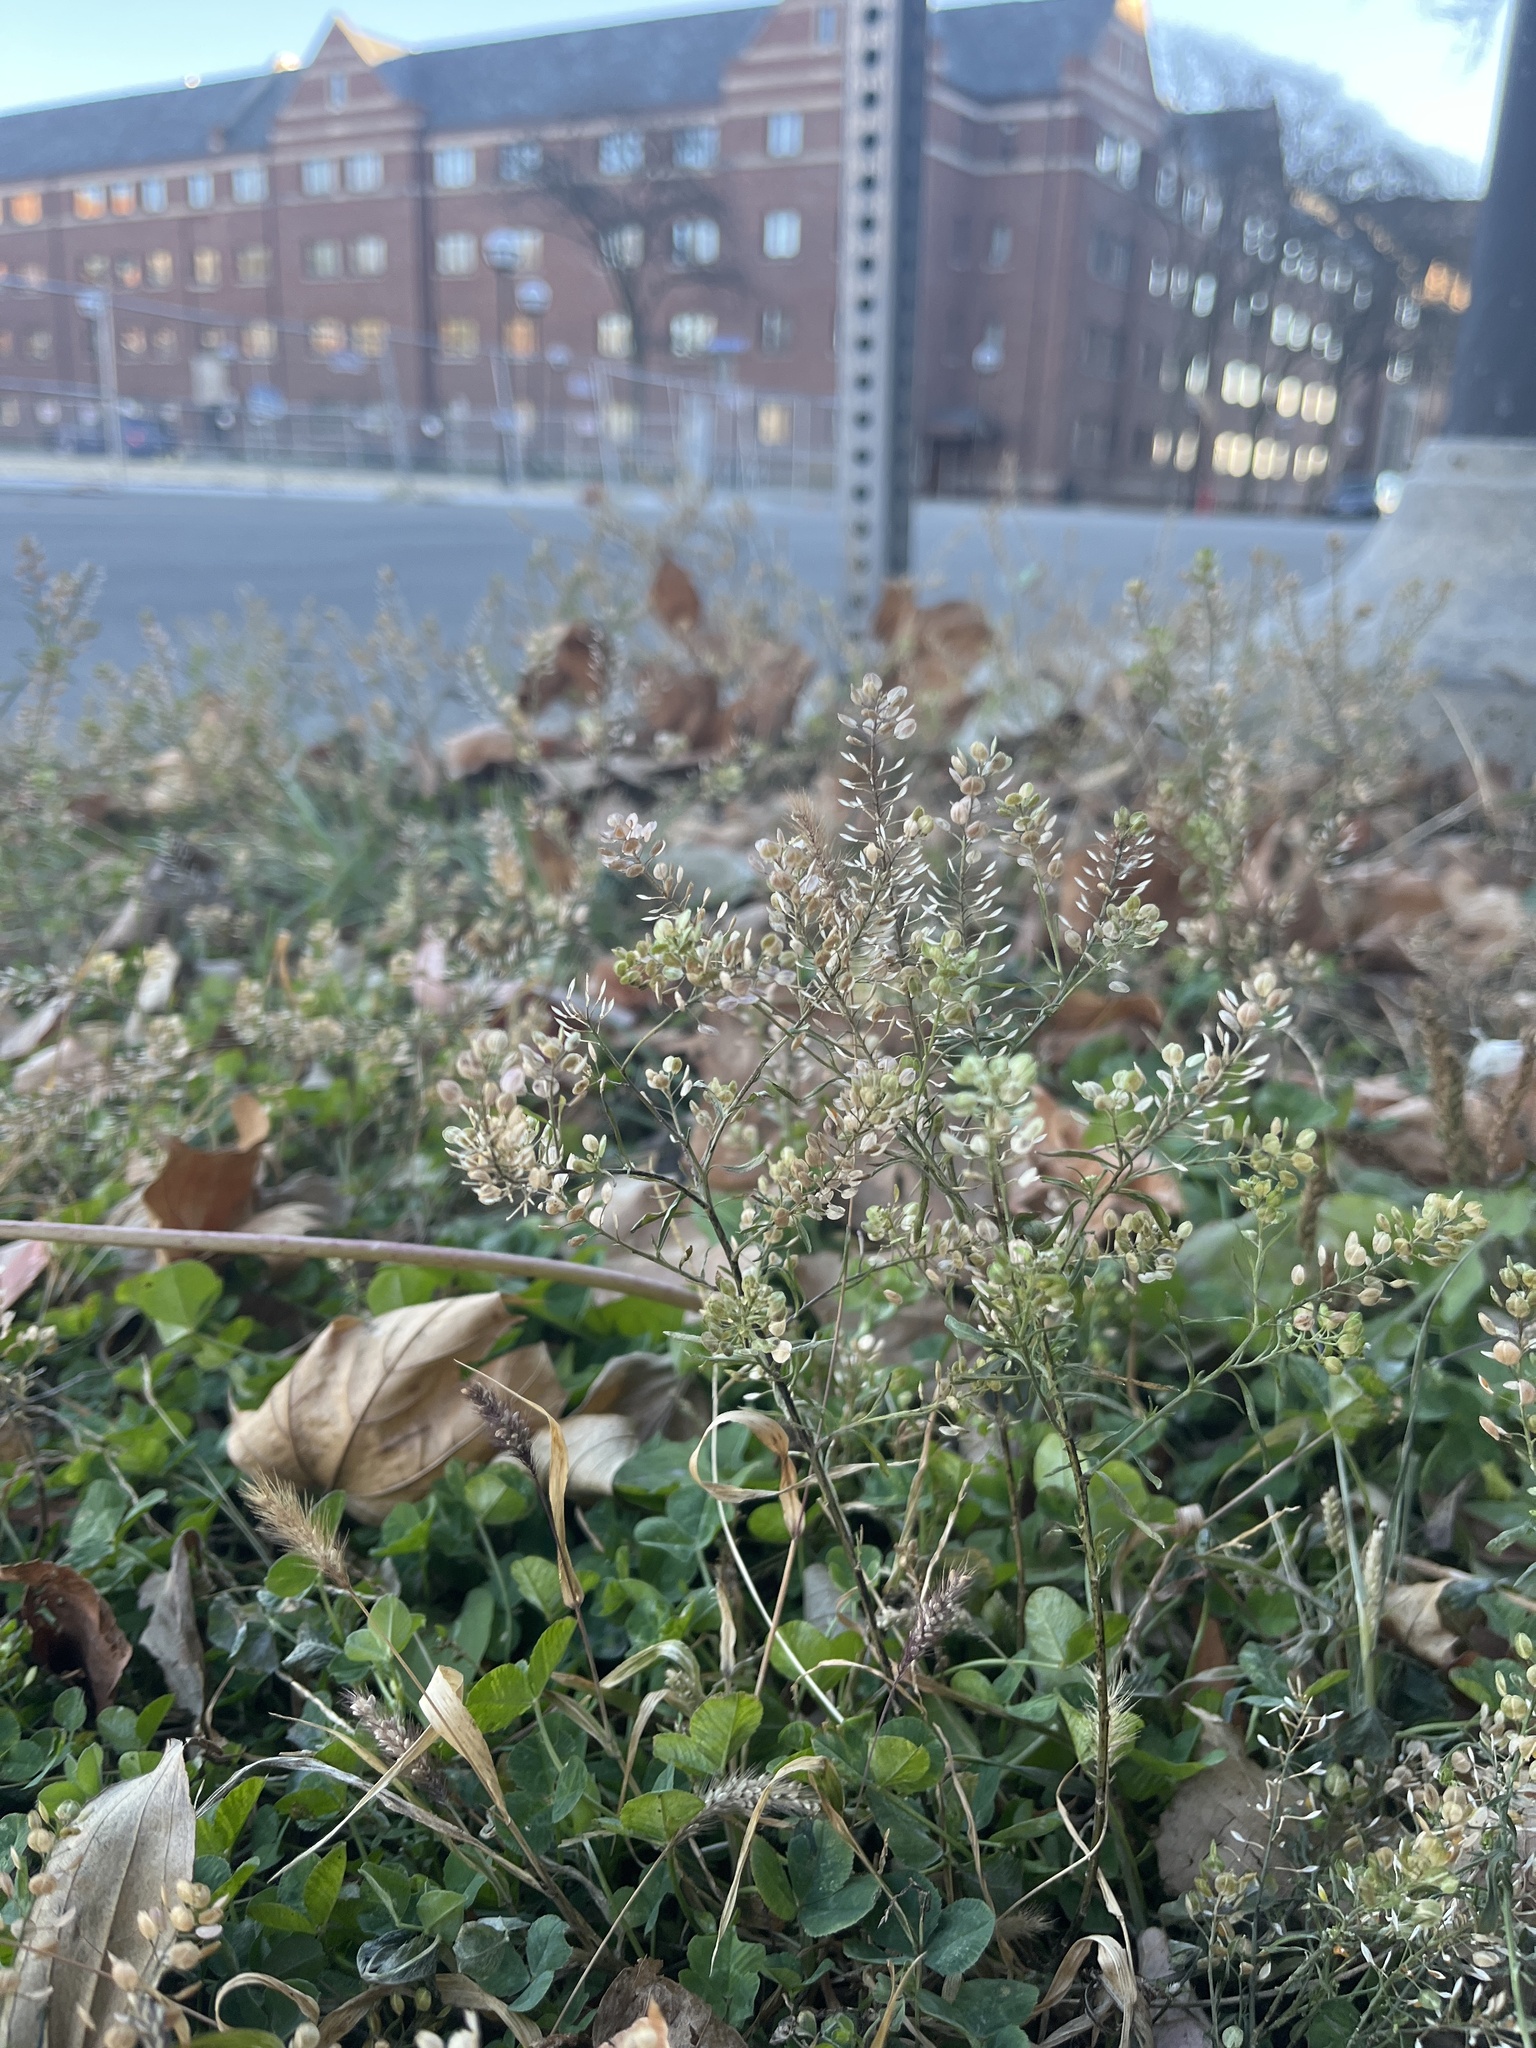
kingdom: Plantae
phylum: Tracheophyta
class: Magnoliopsida
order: Brassicales
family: Brassicaceae
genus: Lepidium
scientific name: Lepidium virginicum
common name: Least pepperwort
